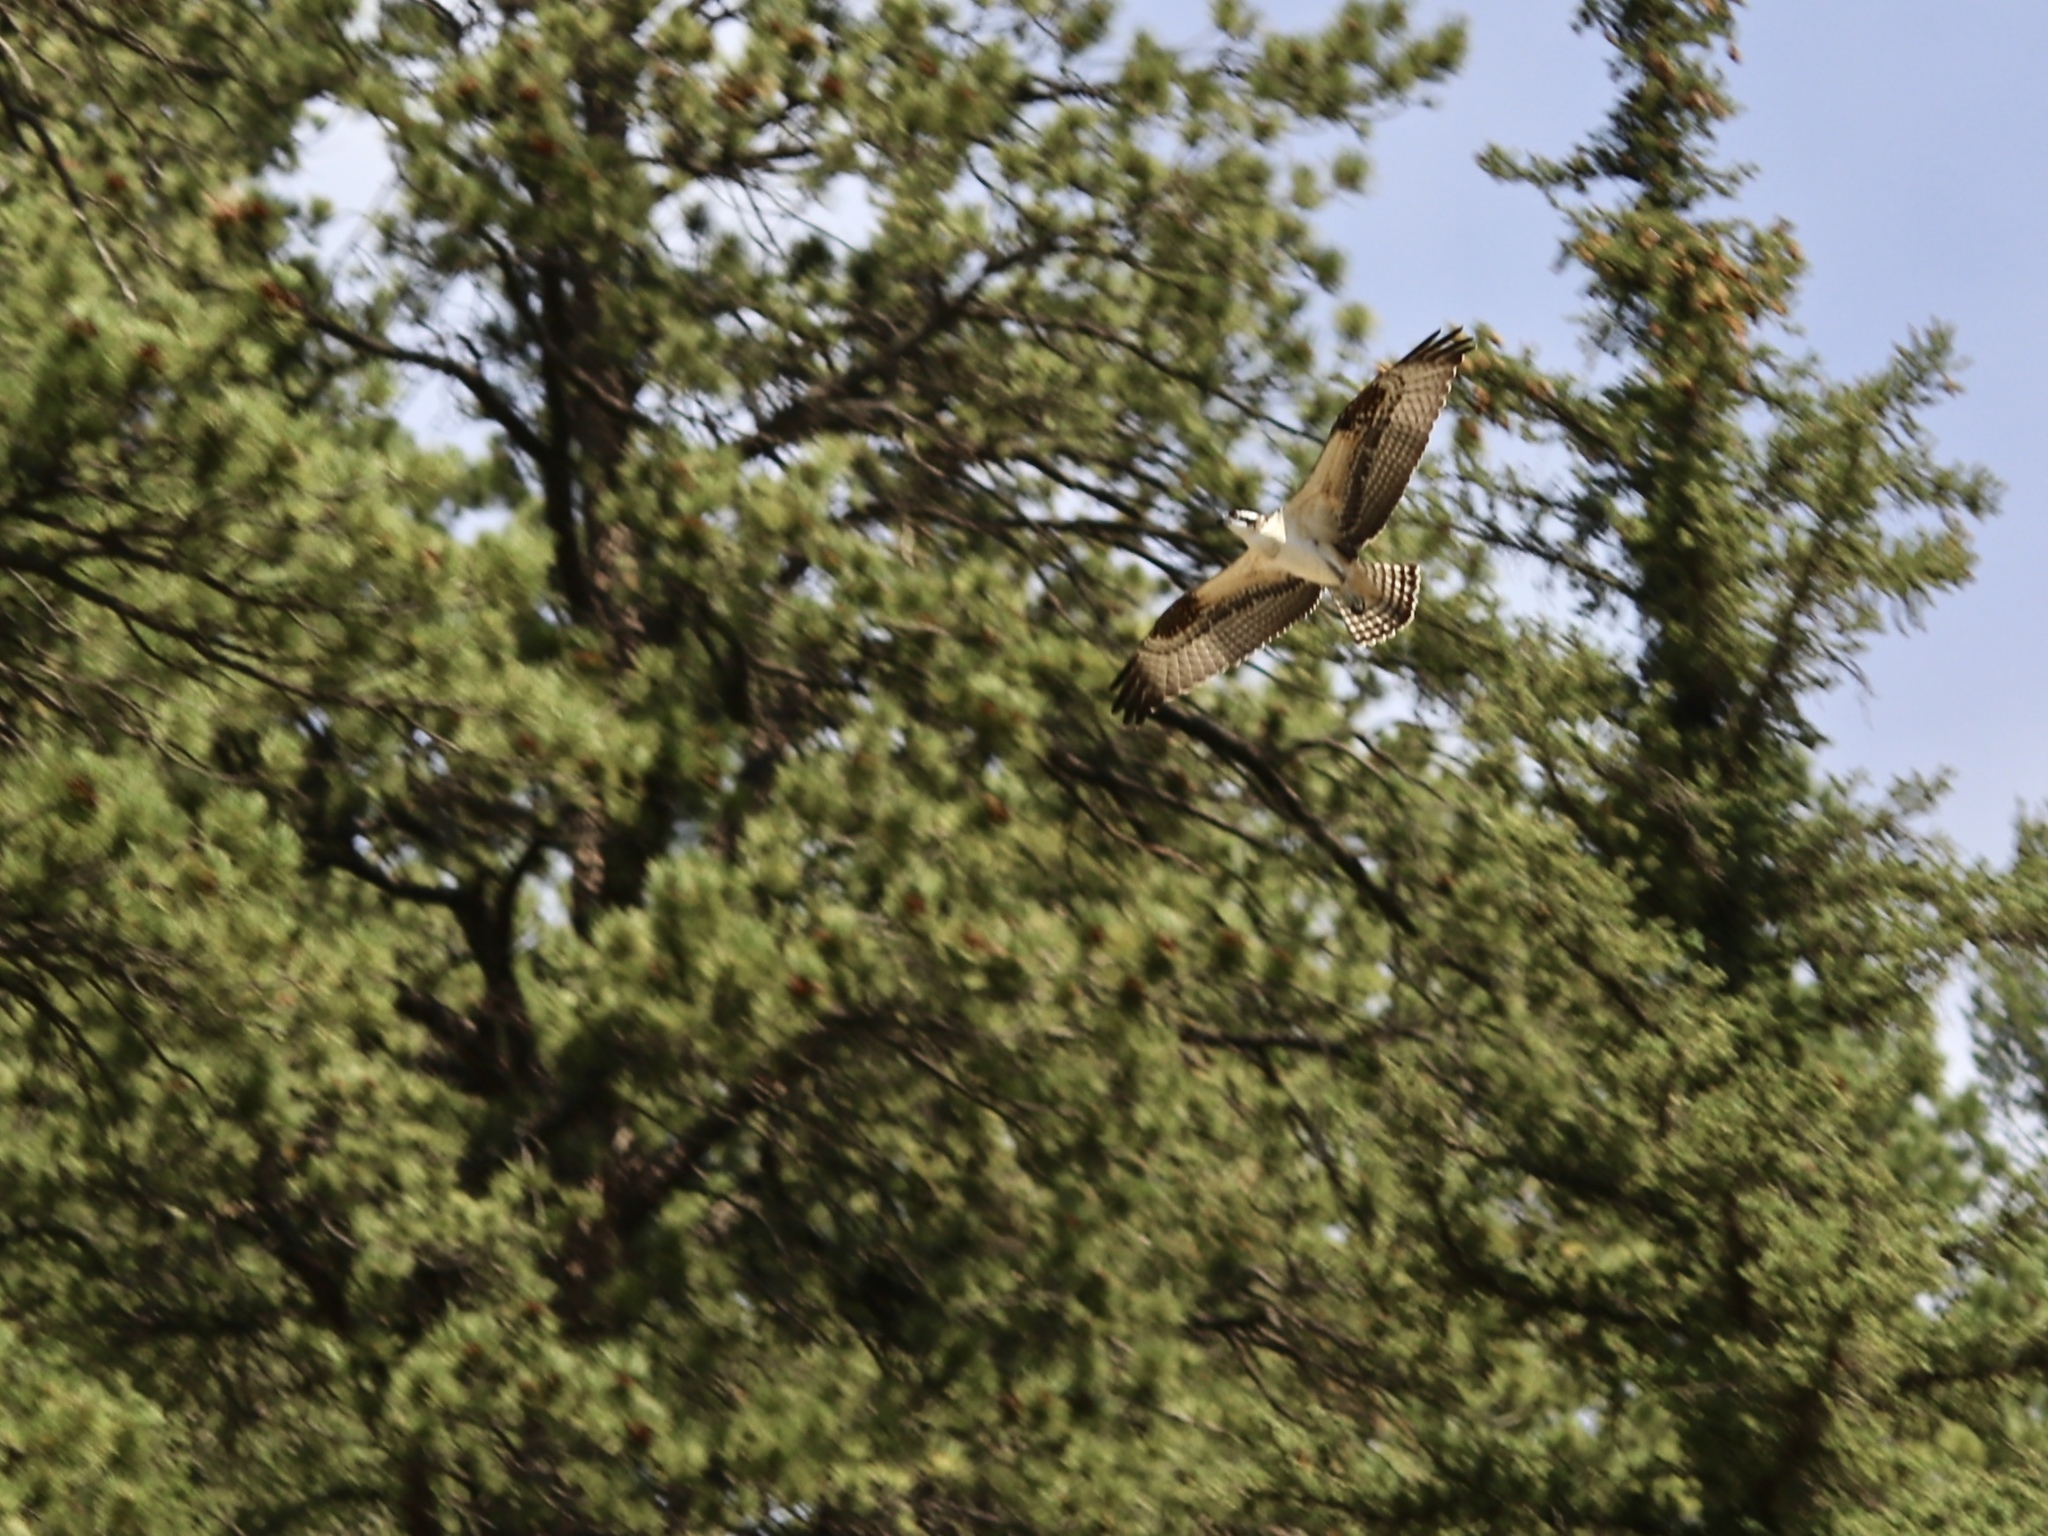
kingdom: Animalia
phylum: Chordata
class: Aves
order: Accipitriformes
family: Pandionidae
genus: Pandion
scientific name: Pandion haliaetus
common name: Osprey
